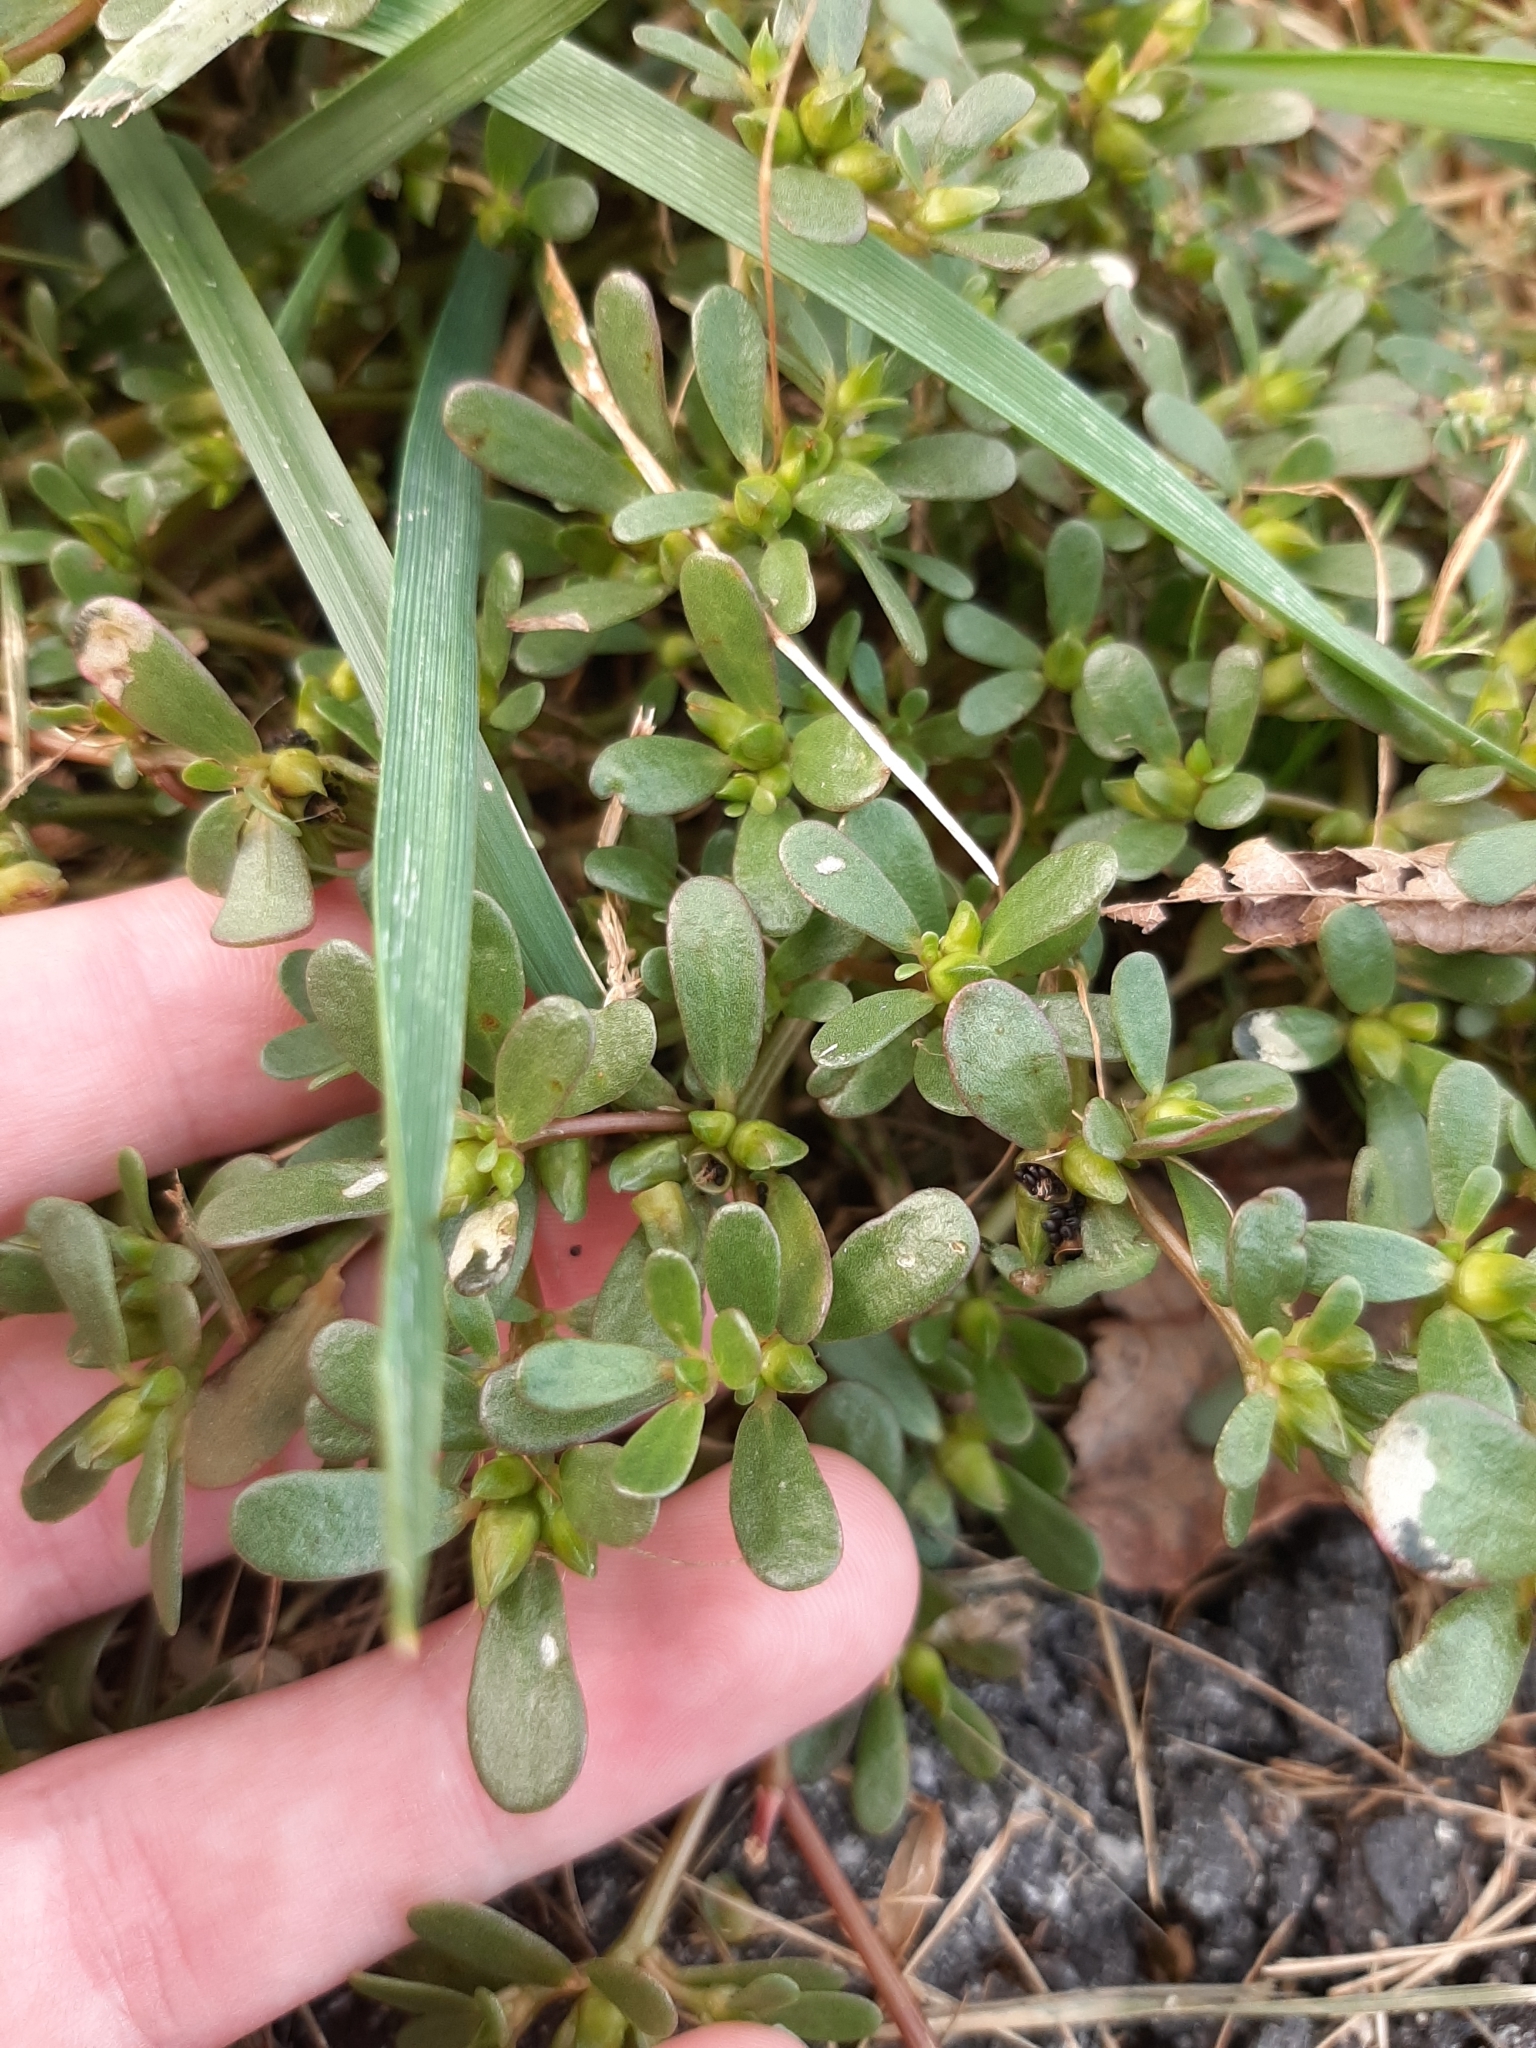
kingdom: Animalia
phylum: Arthropoda
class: Insecta
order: Hymenoptera
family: Argidae
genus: Schizocerella
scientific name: Schizocerella pilicornis
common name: Purslane sawfly
